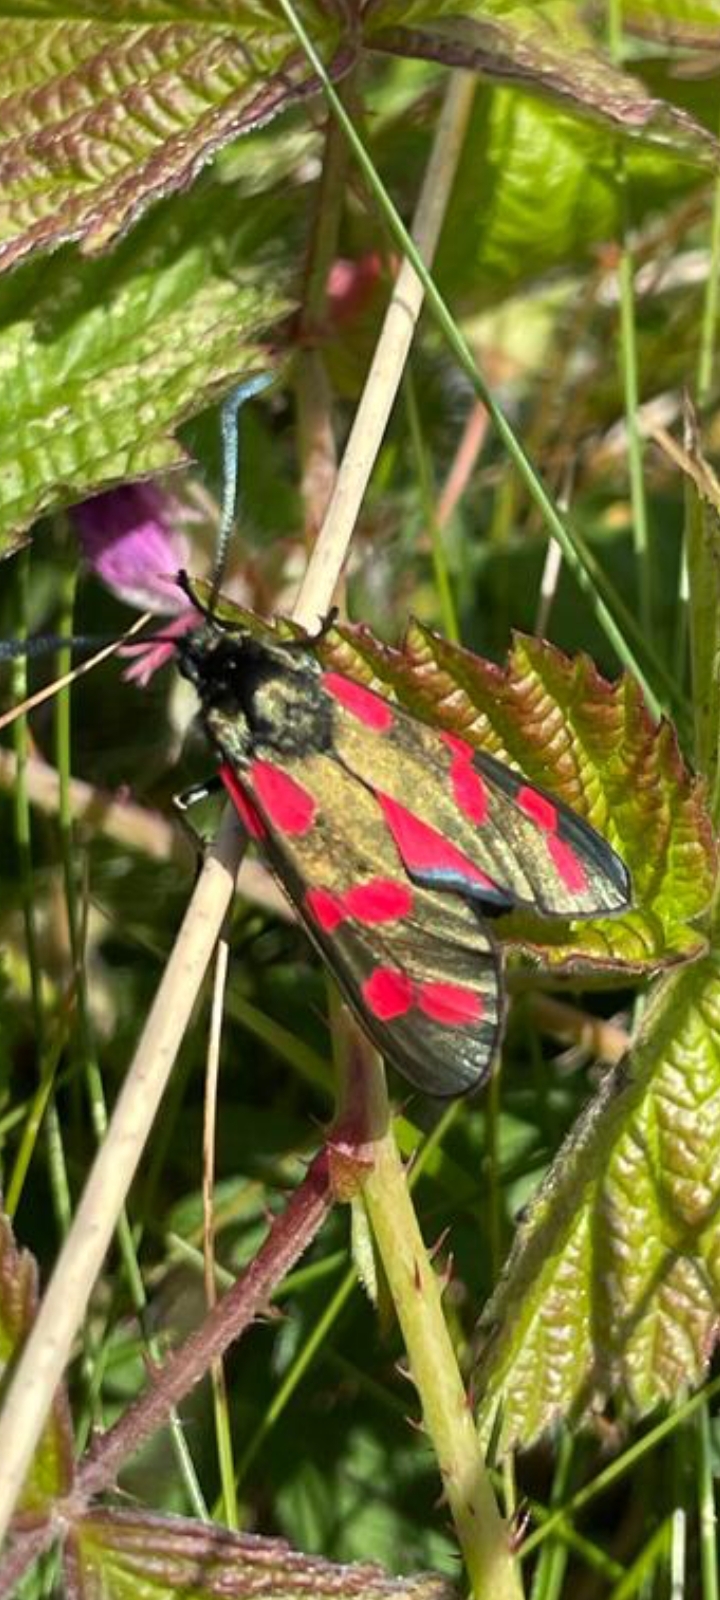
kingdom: Animalia
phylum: Arthropoda
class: Insecta
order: Lepidoptera
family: Zygaenidae
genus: Zygaena
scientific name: Zygaena filipendulae
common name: Six-spot burnet
